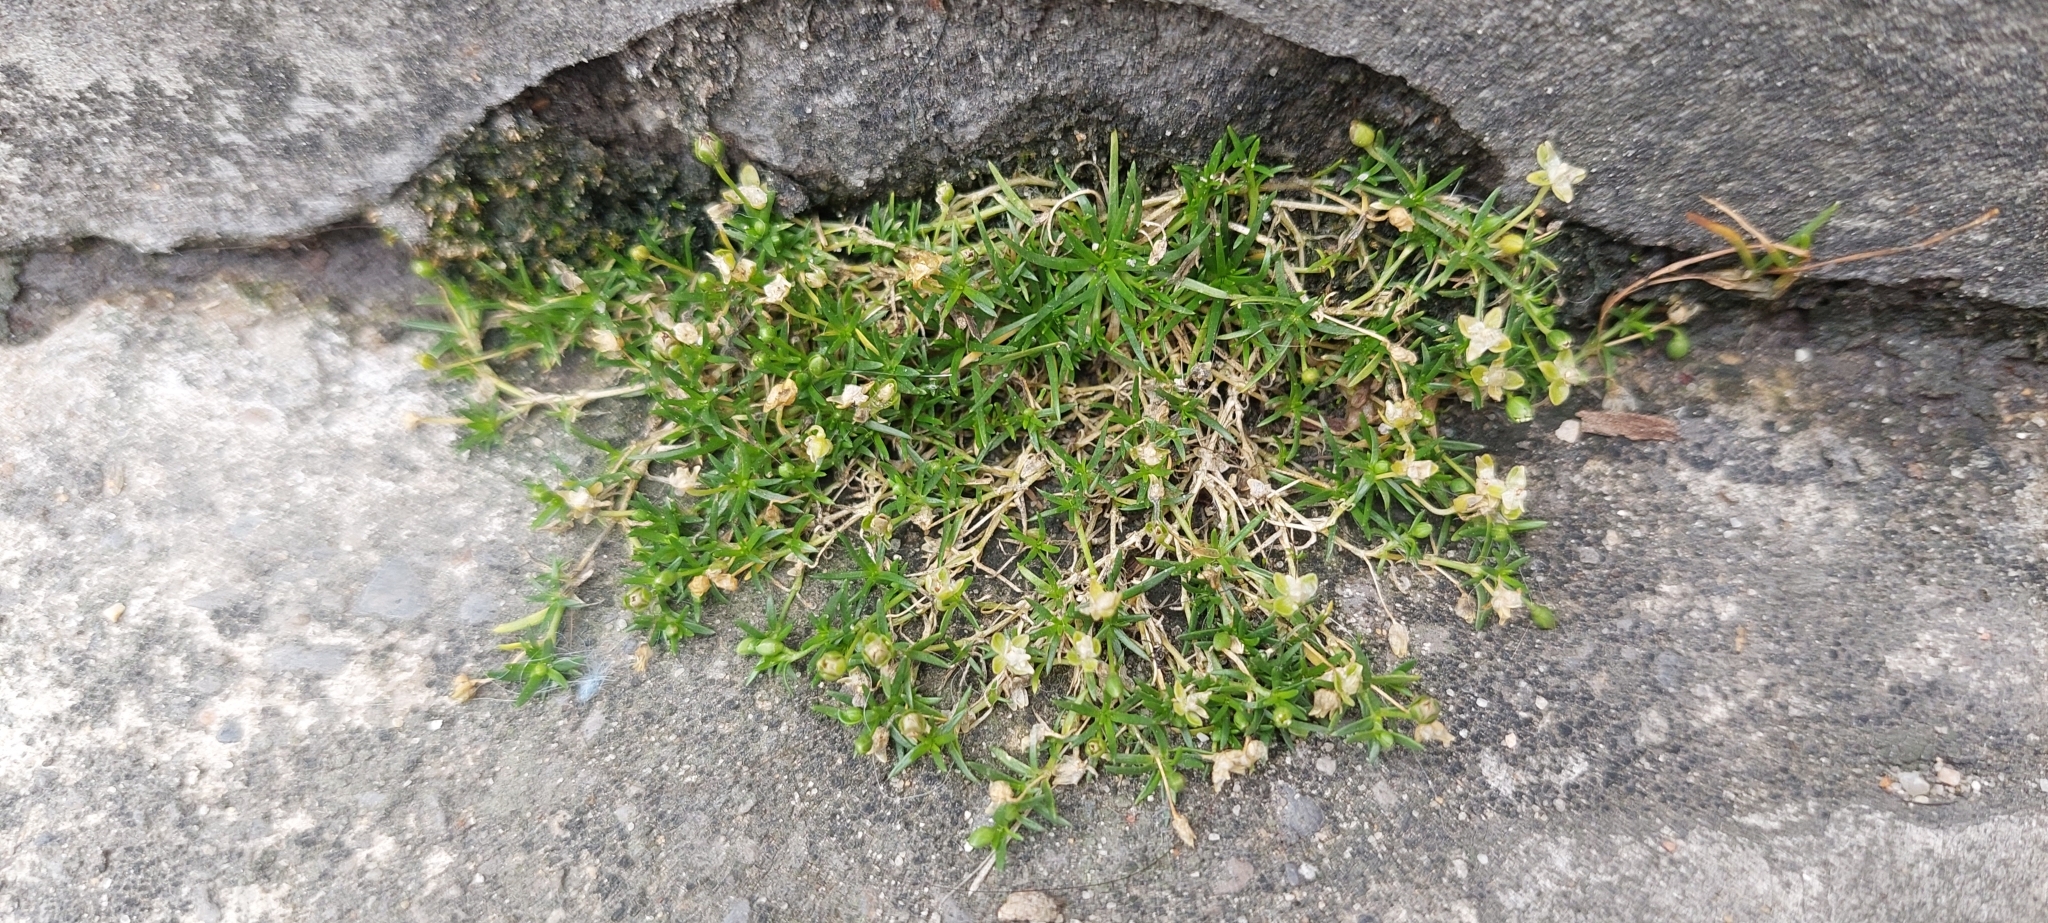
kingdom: Plantae
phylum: Tracheophyta
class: Magnoliopsida
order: Caryophyllales
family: Caryophyllaceae
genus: Sagina
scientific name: Sagina procumbens
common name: Procumbent pearlwort
